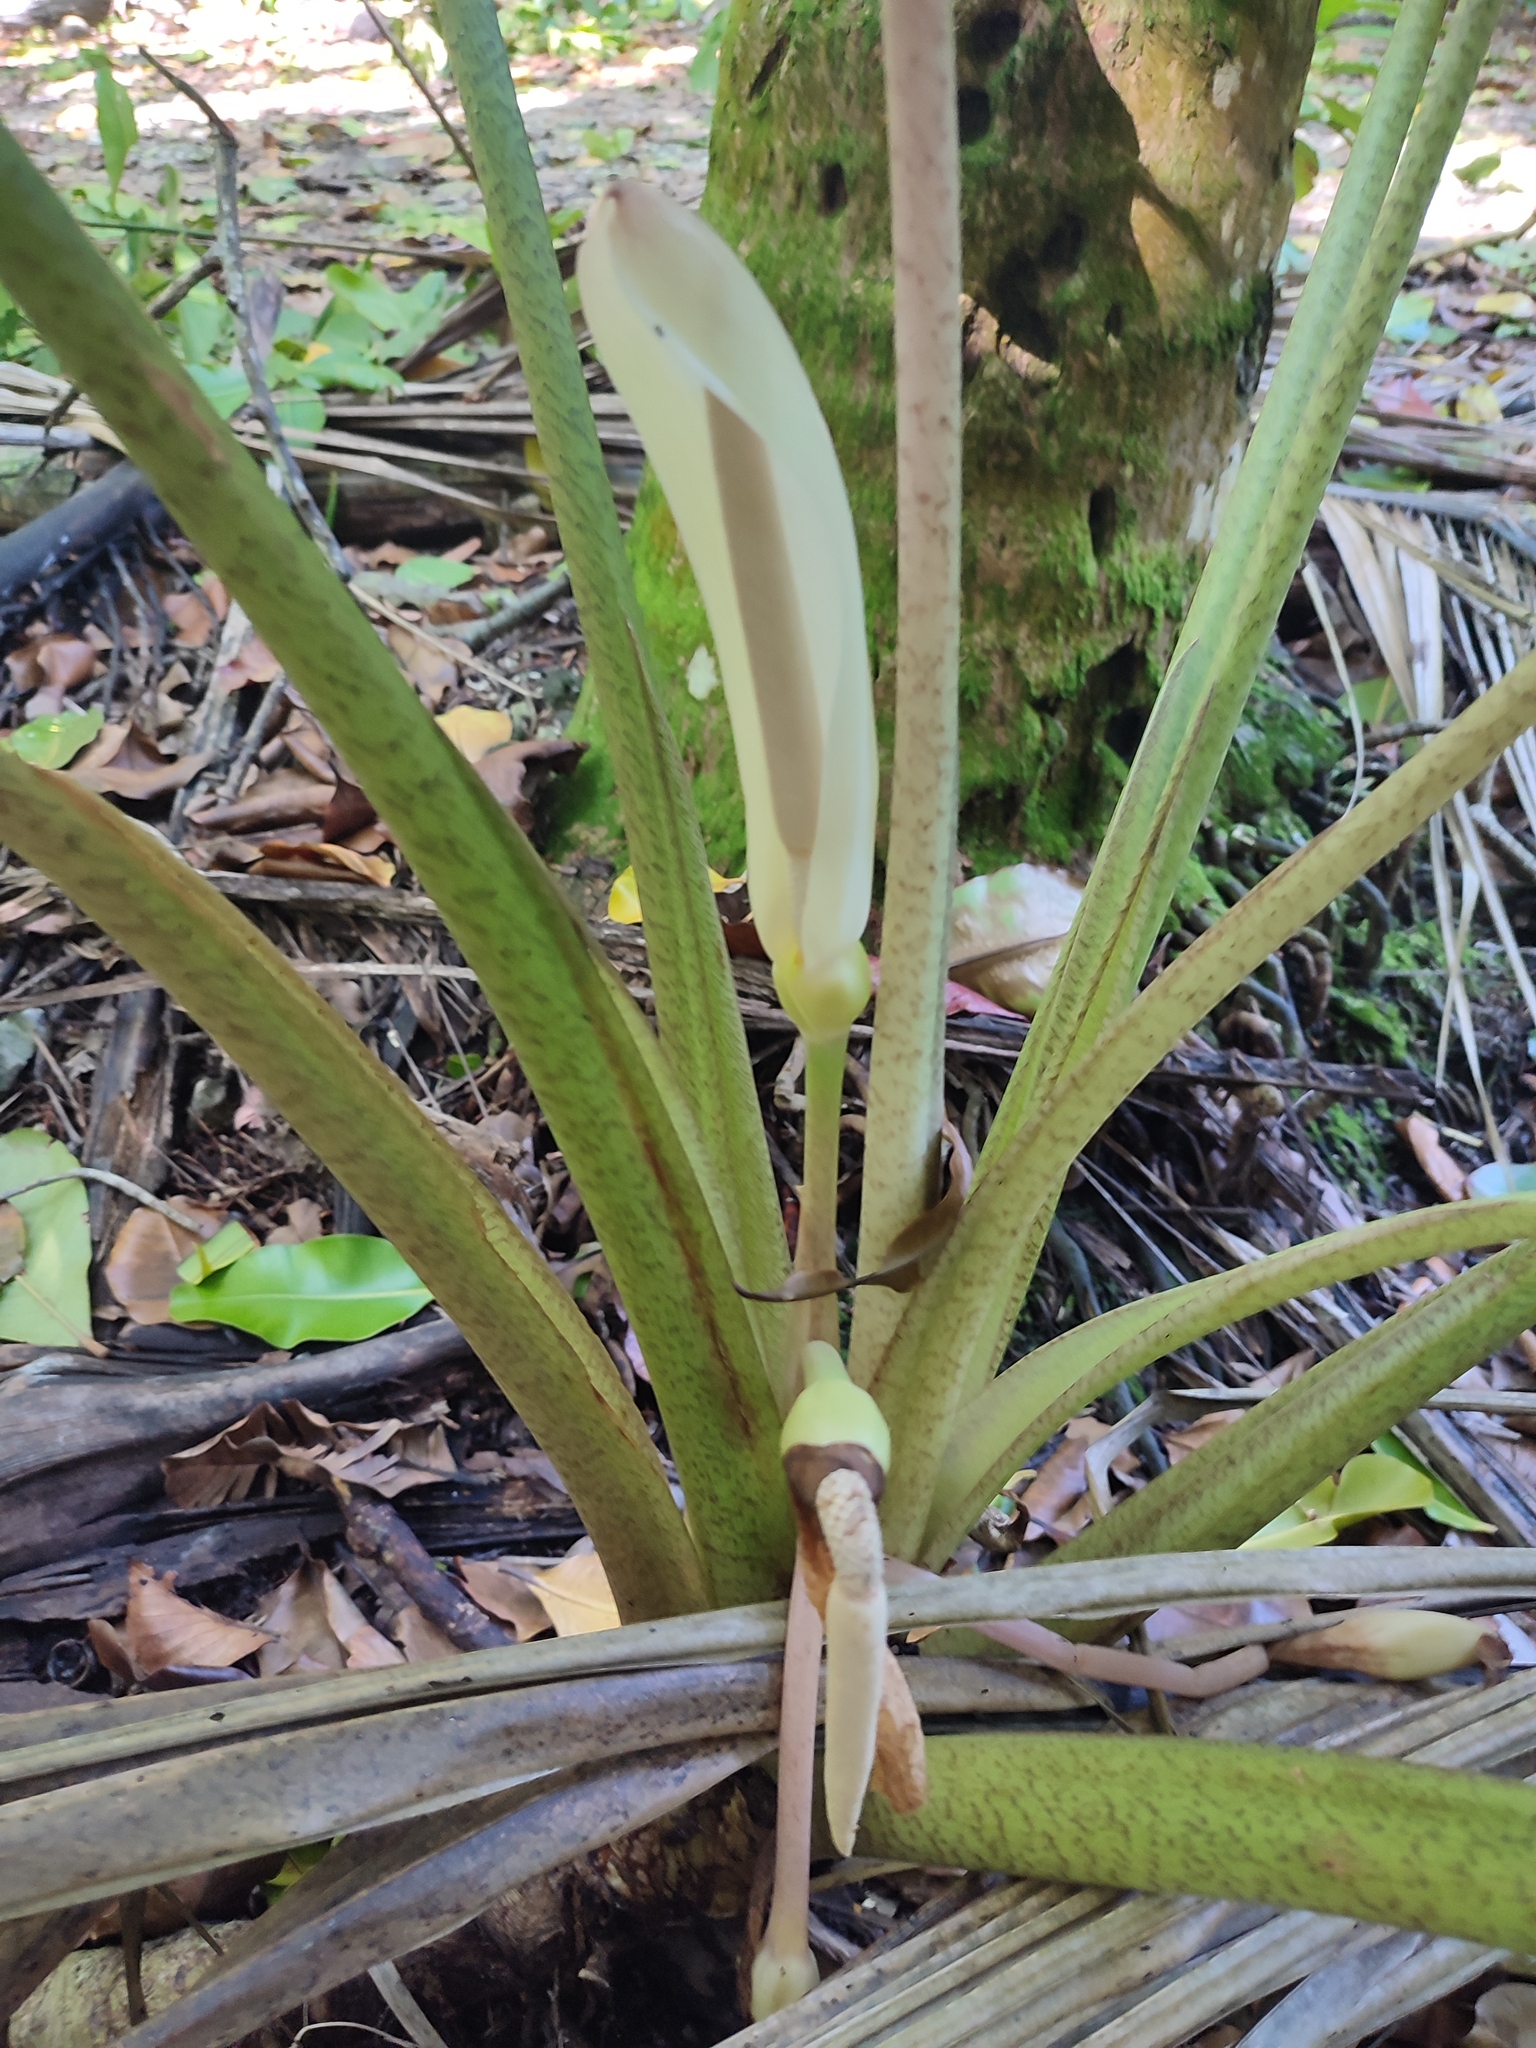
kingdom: Plantae
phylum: Tracheophyta
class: Liliopsida
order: Alismatales
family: Araceae
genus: Colocasia
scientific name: Colocasia esculenta
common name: Taro
